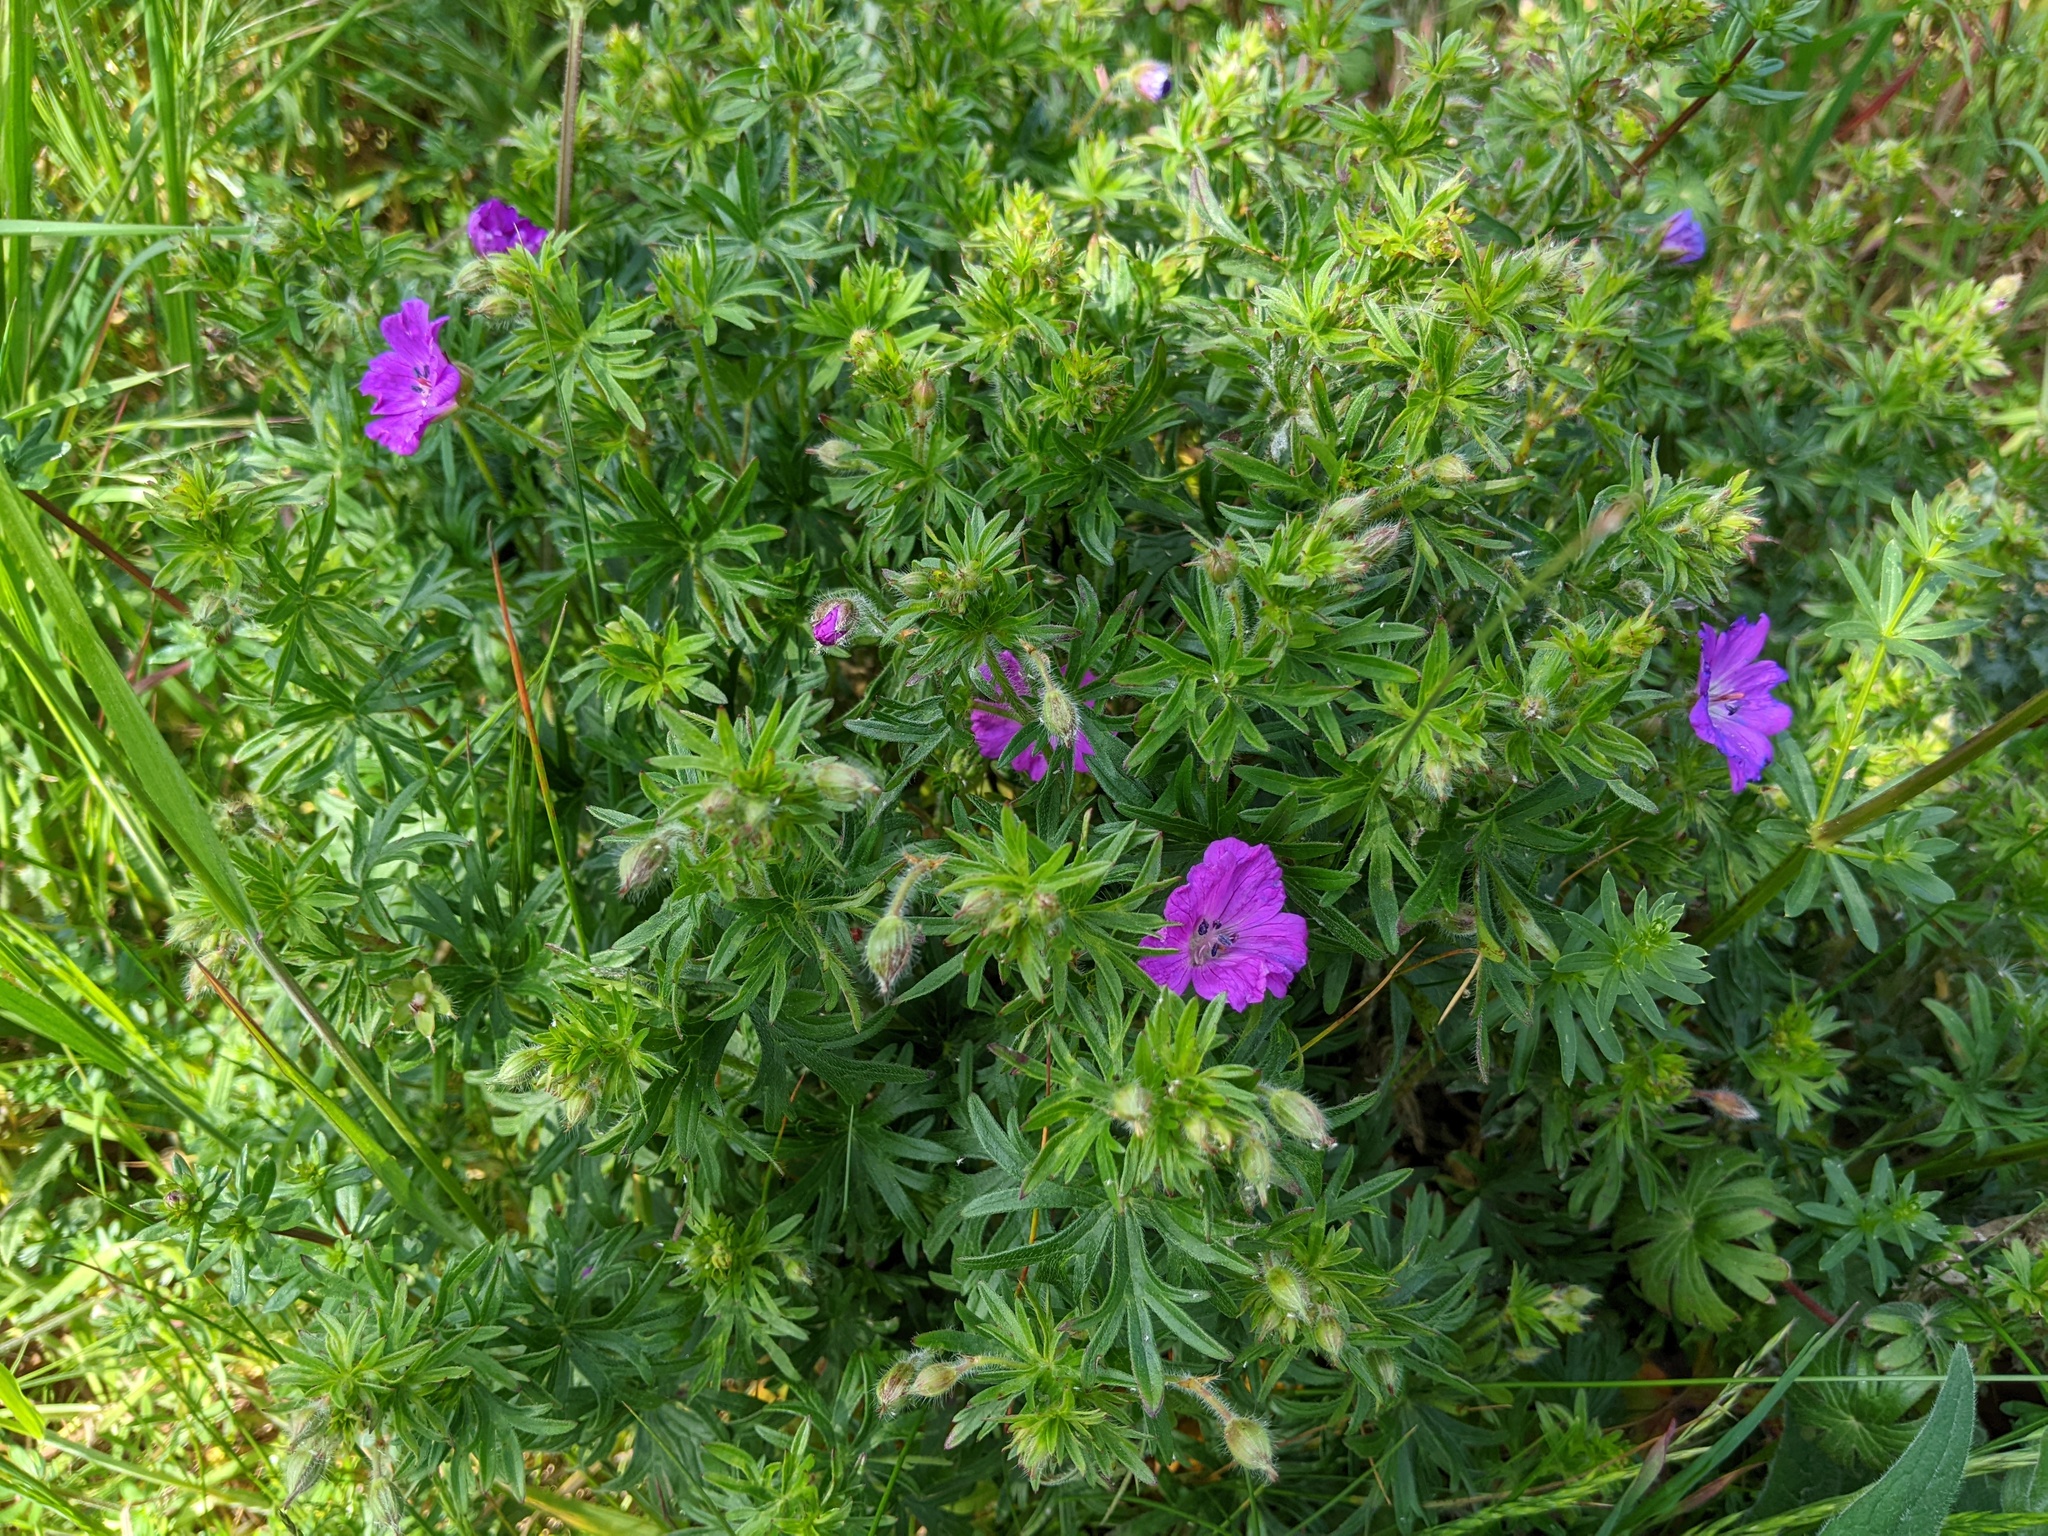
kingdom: Plantae
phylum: Tracheophyta
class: Magnoliopsida
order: Geraniales
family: Geraniaceae
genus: Geranium
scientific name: Geranium sanguineum
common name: Bloody crane's-bill
